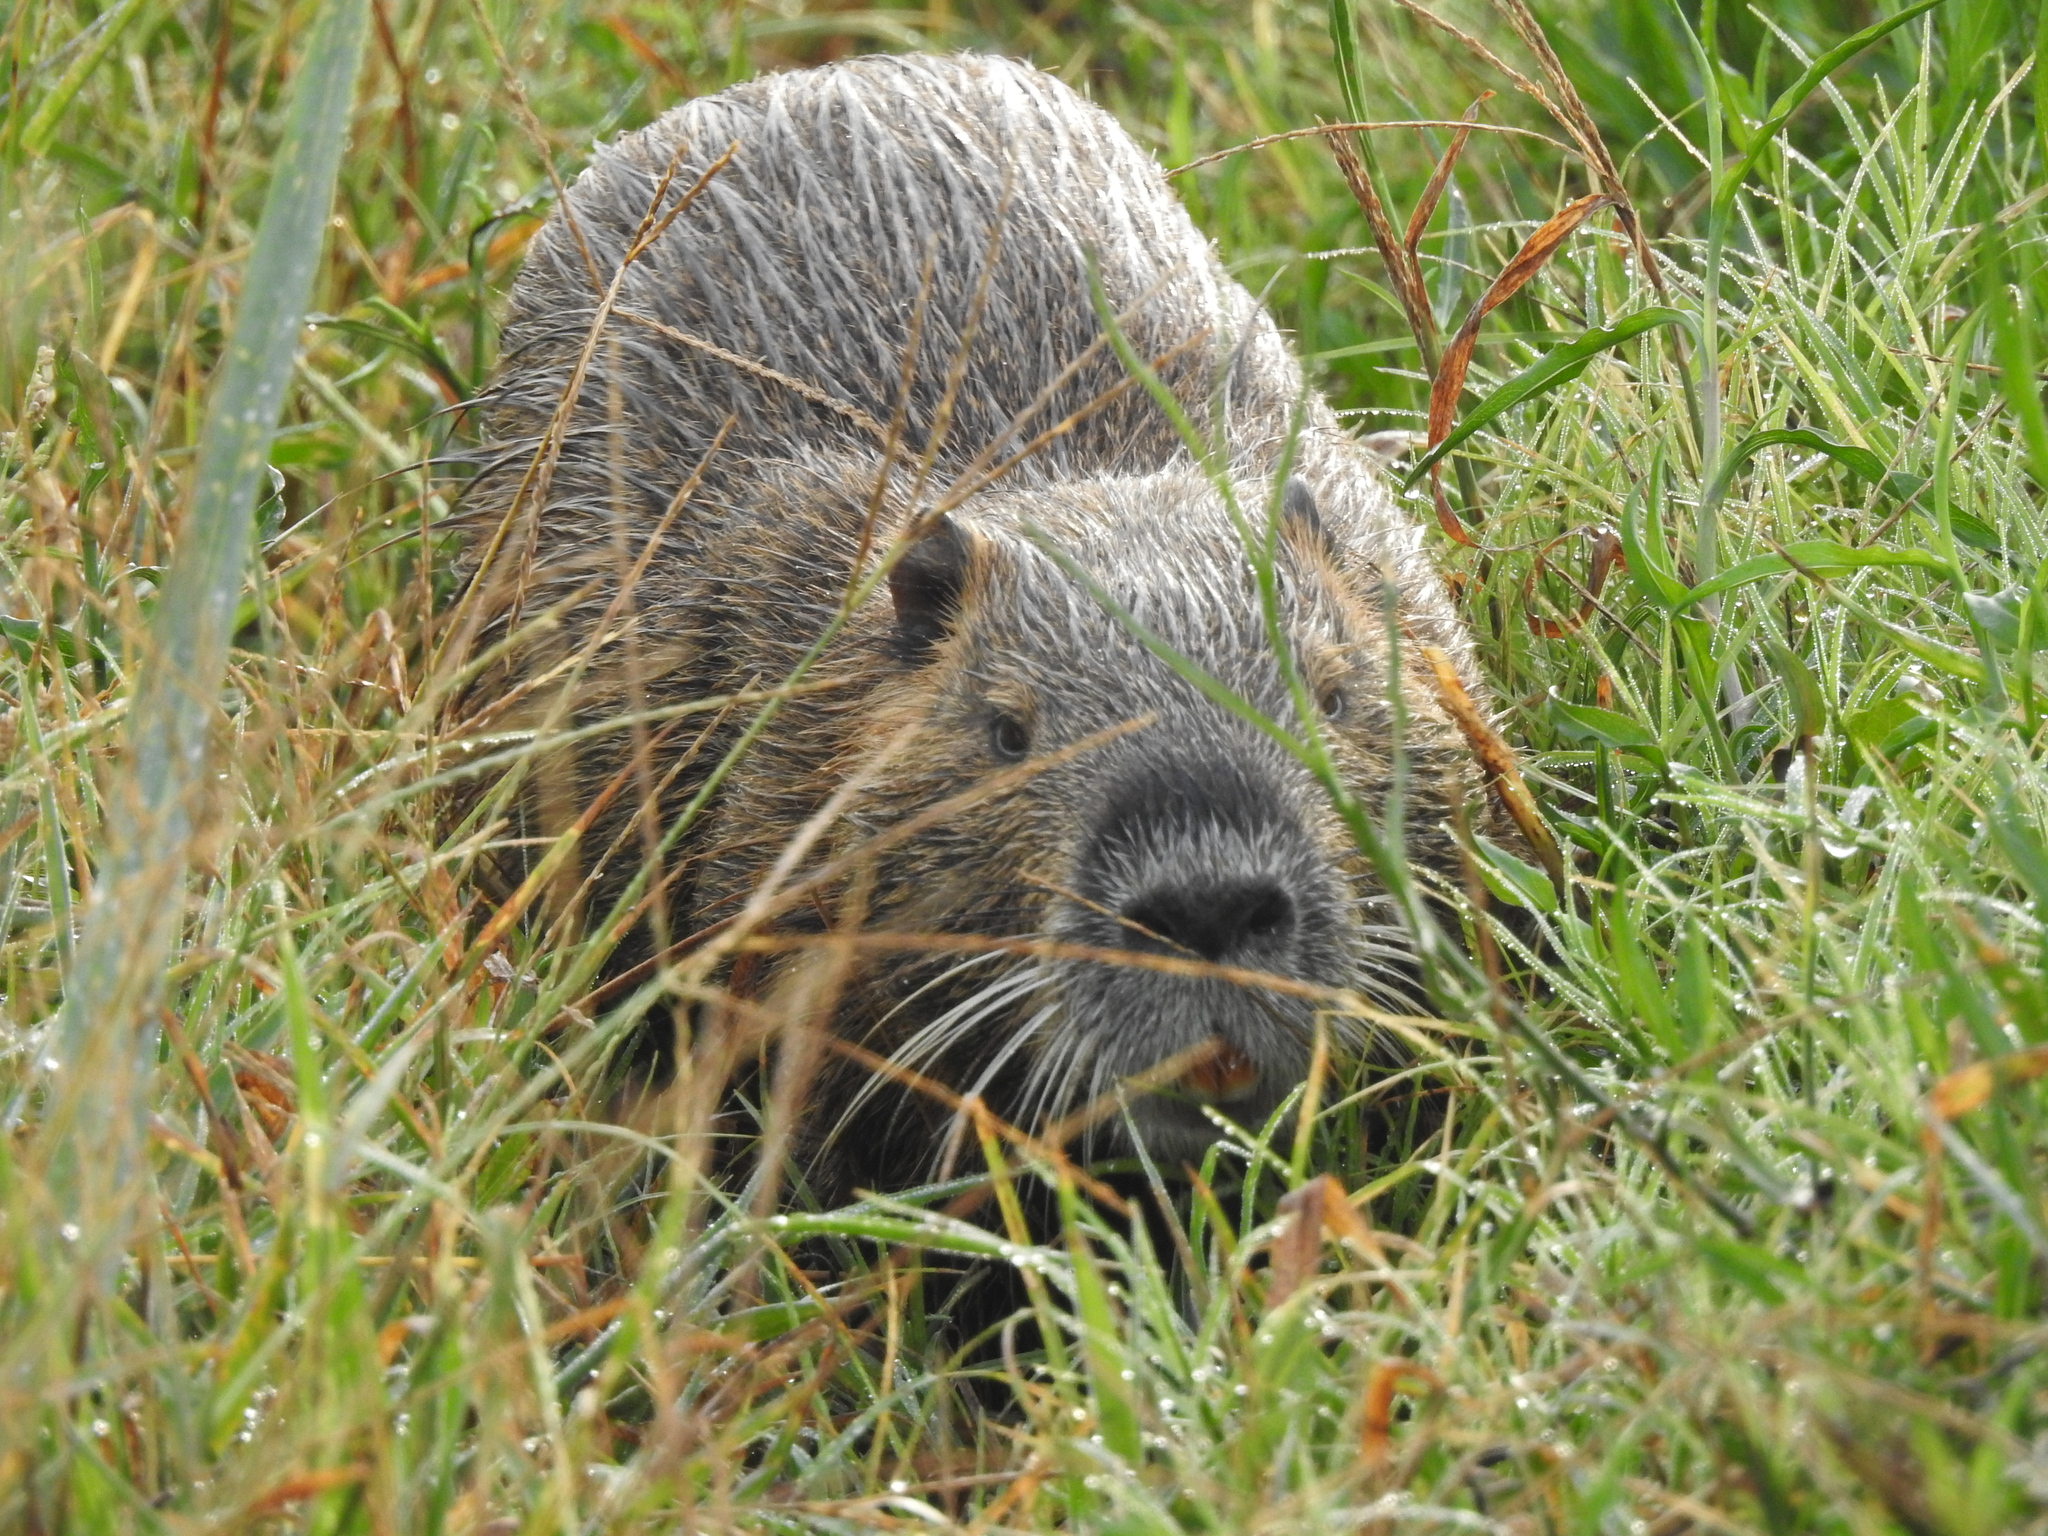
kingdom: Animalia
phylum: Chordata
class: Mammalia
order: Rodentia
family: Myocastoridae
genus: Myocastor
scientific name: Myocastor coypus
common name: Coypu
